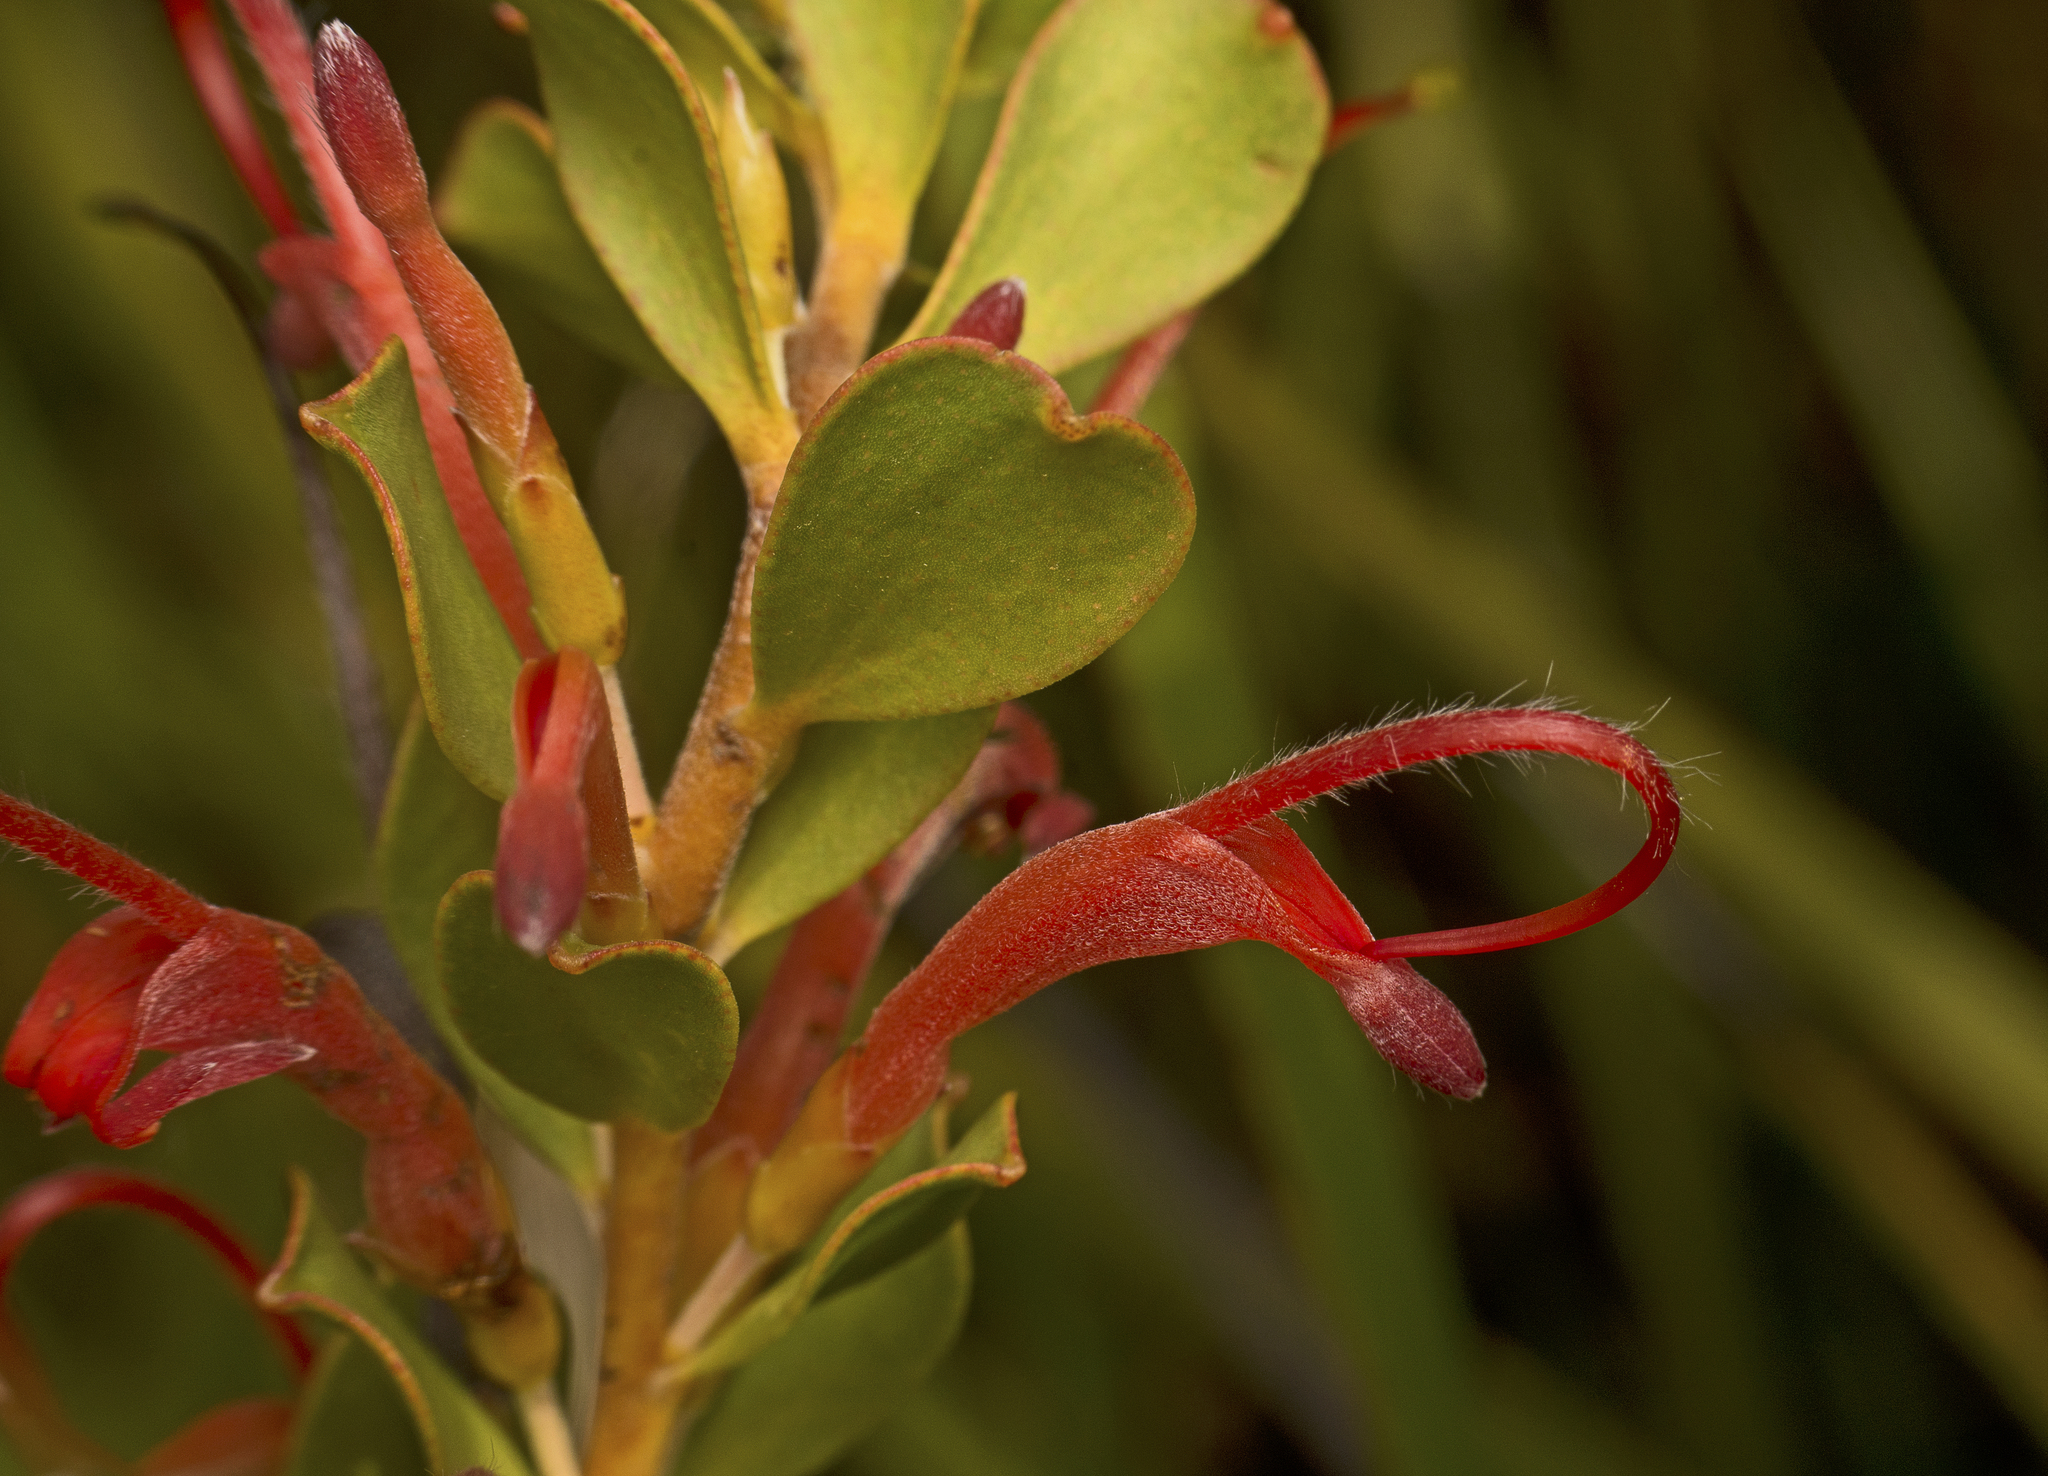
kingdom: Plantae
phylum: Tracheophyta
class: Magnoliopsida
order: Proteales
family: Proteaceae
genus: Adenanthos
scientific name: Adenanthos obovatus
